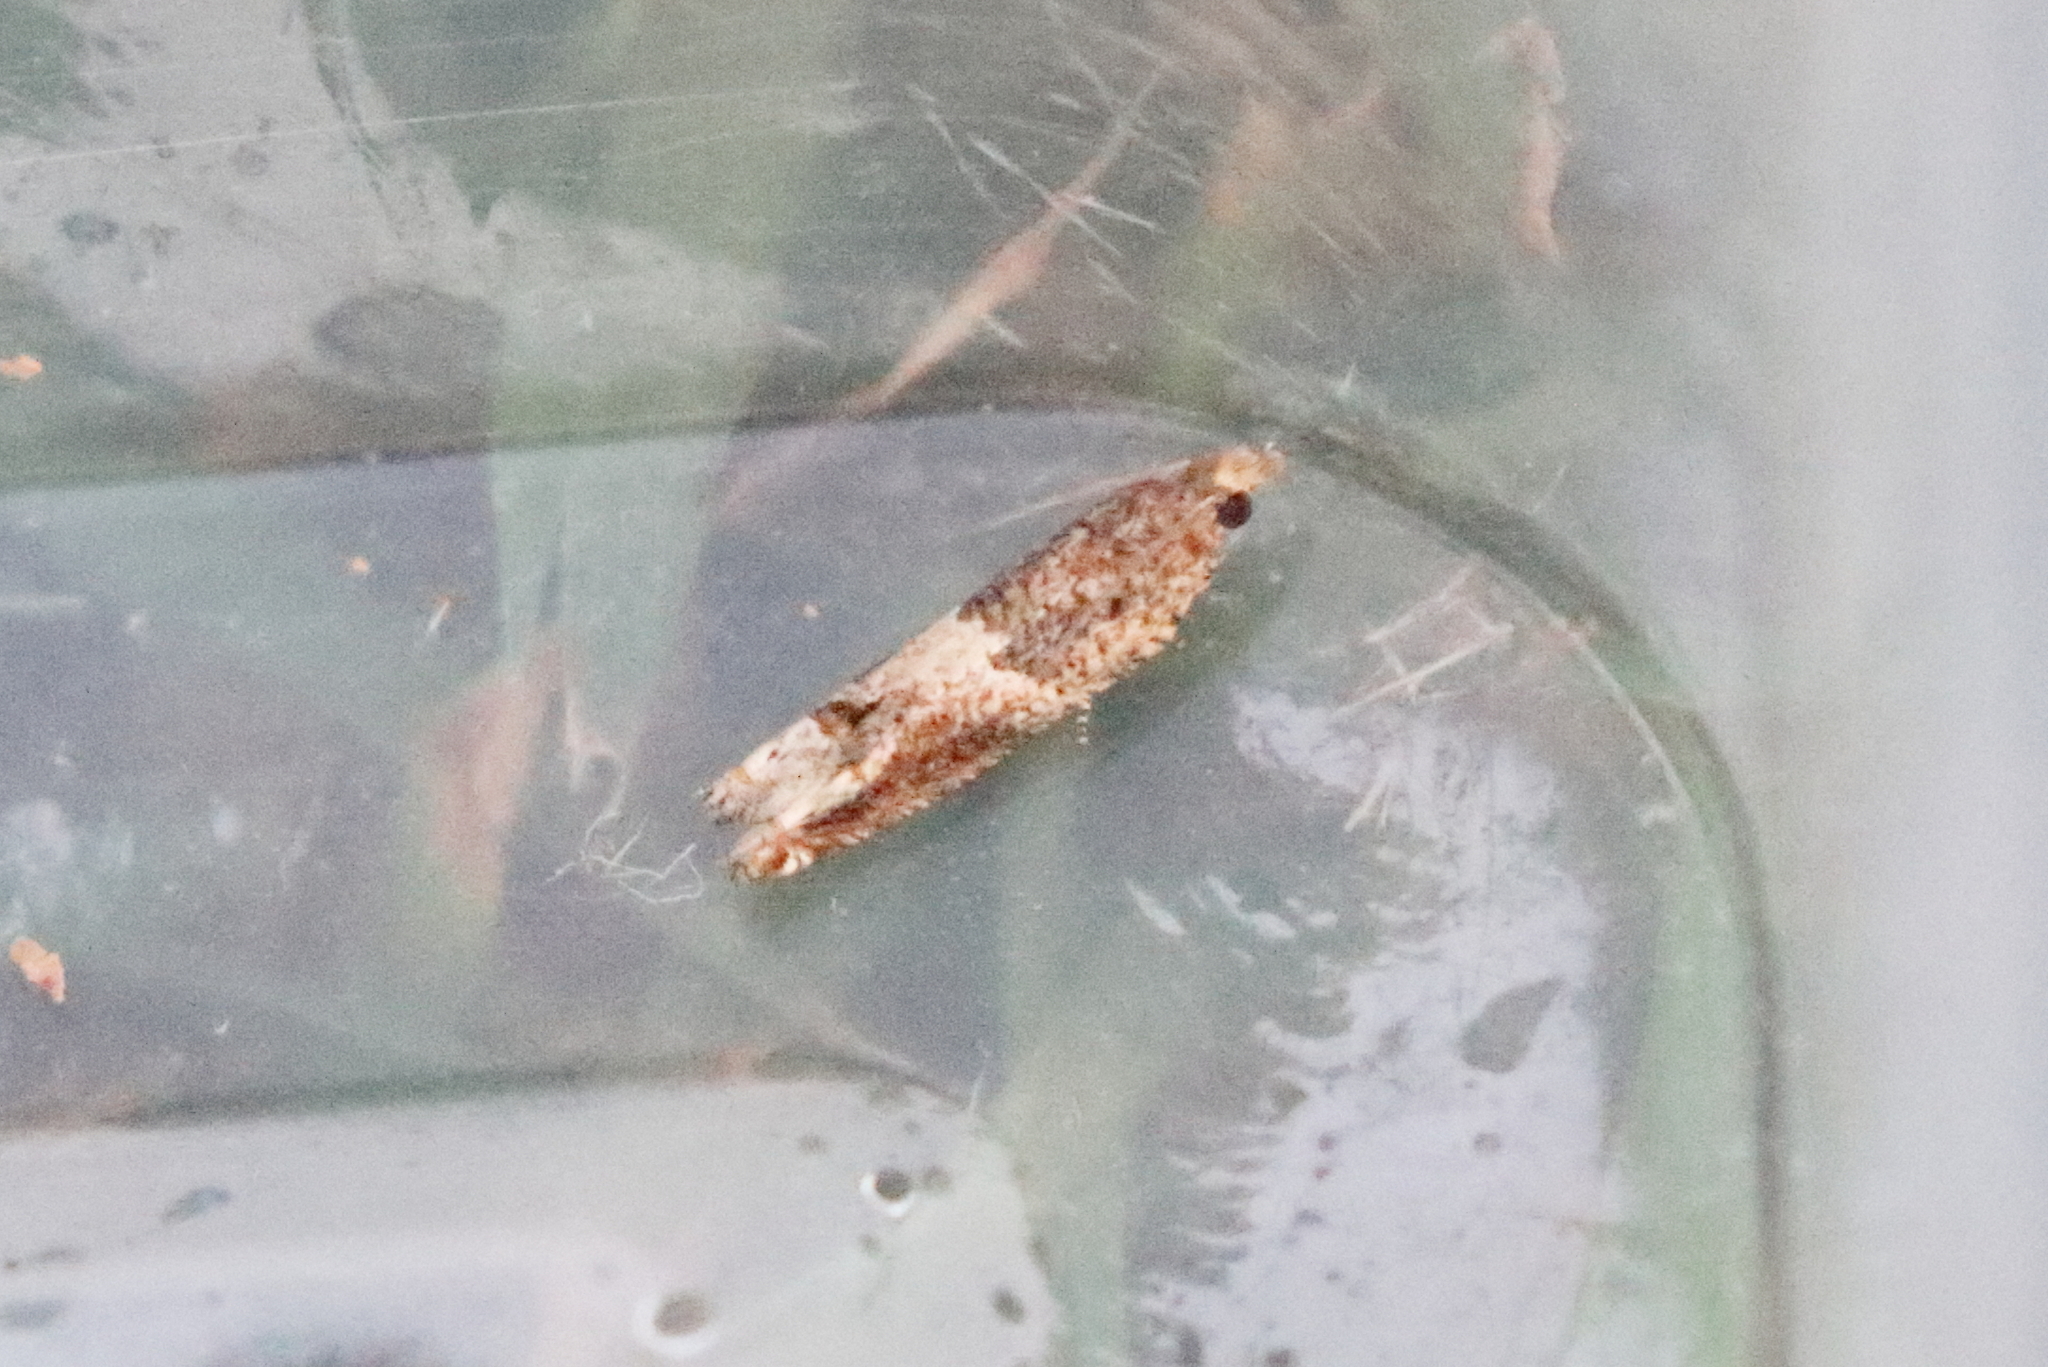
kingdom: Animalia
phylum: Arthropoda
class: Insecta
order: Lepidoptera
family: Tortricidae
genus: Crocidosema
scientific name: Crocidosema plebejana
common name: Southern bell
